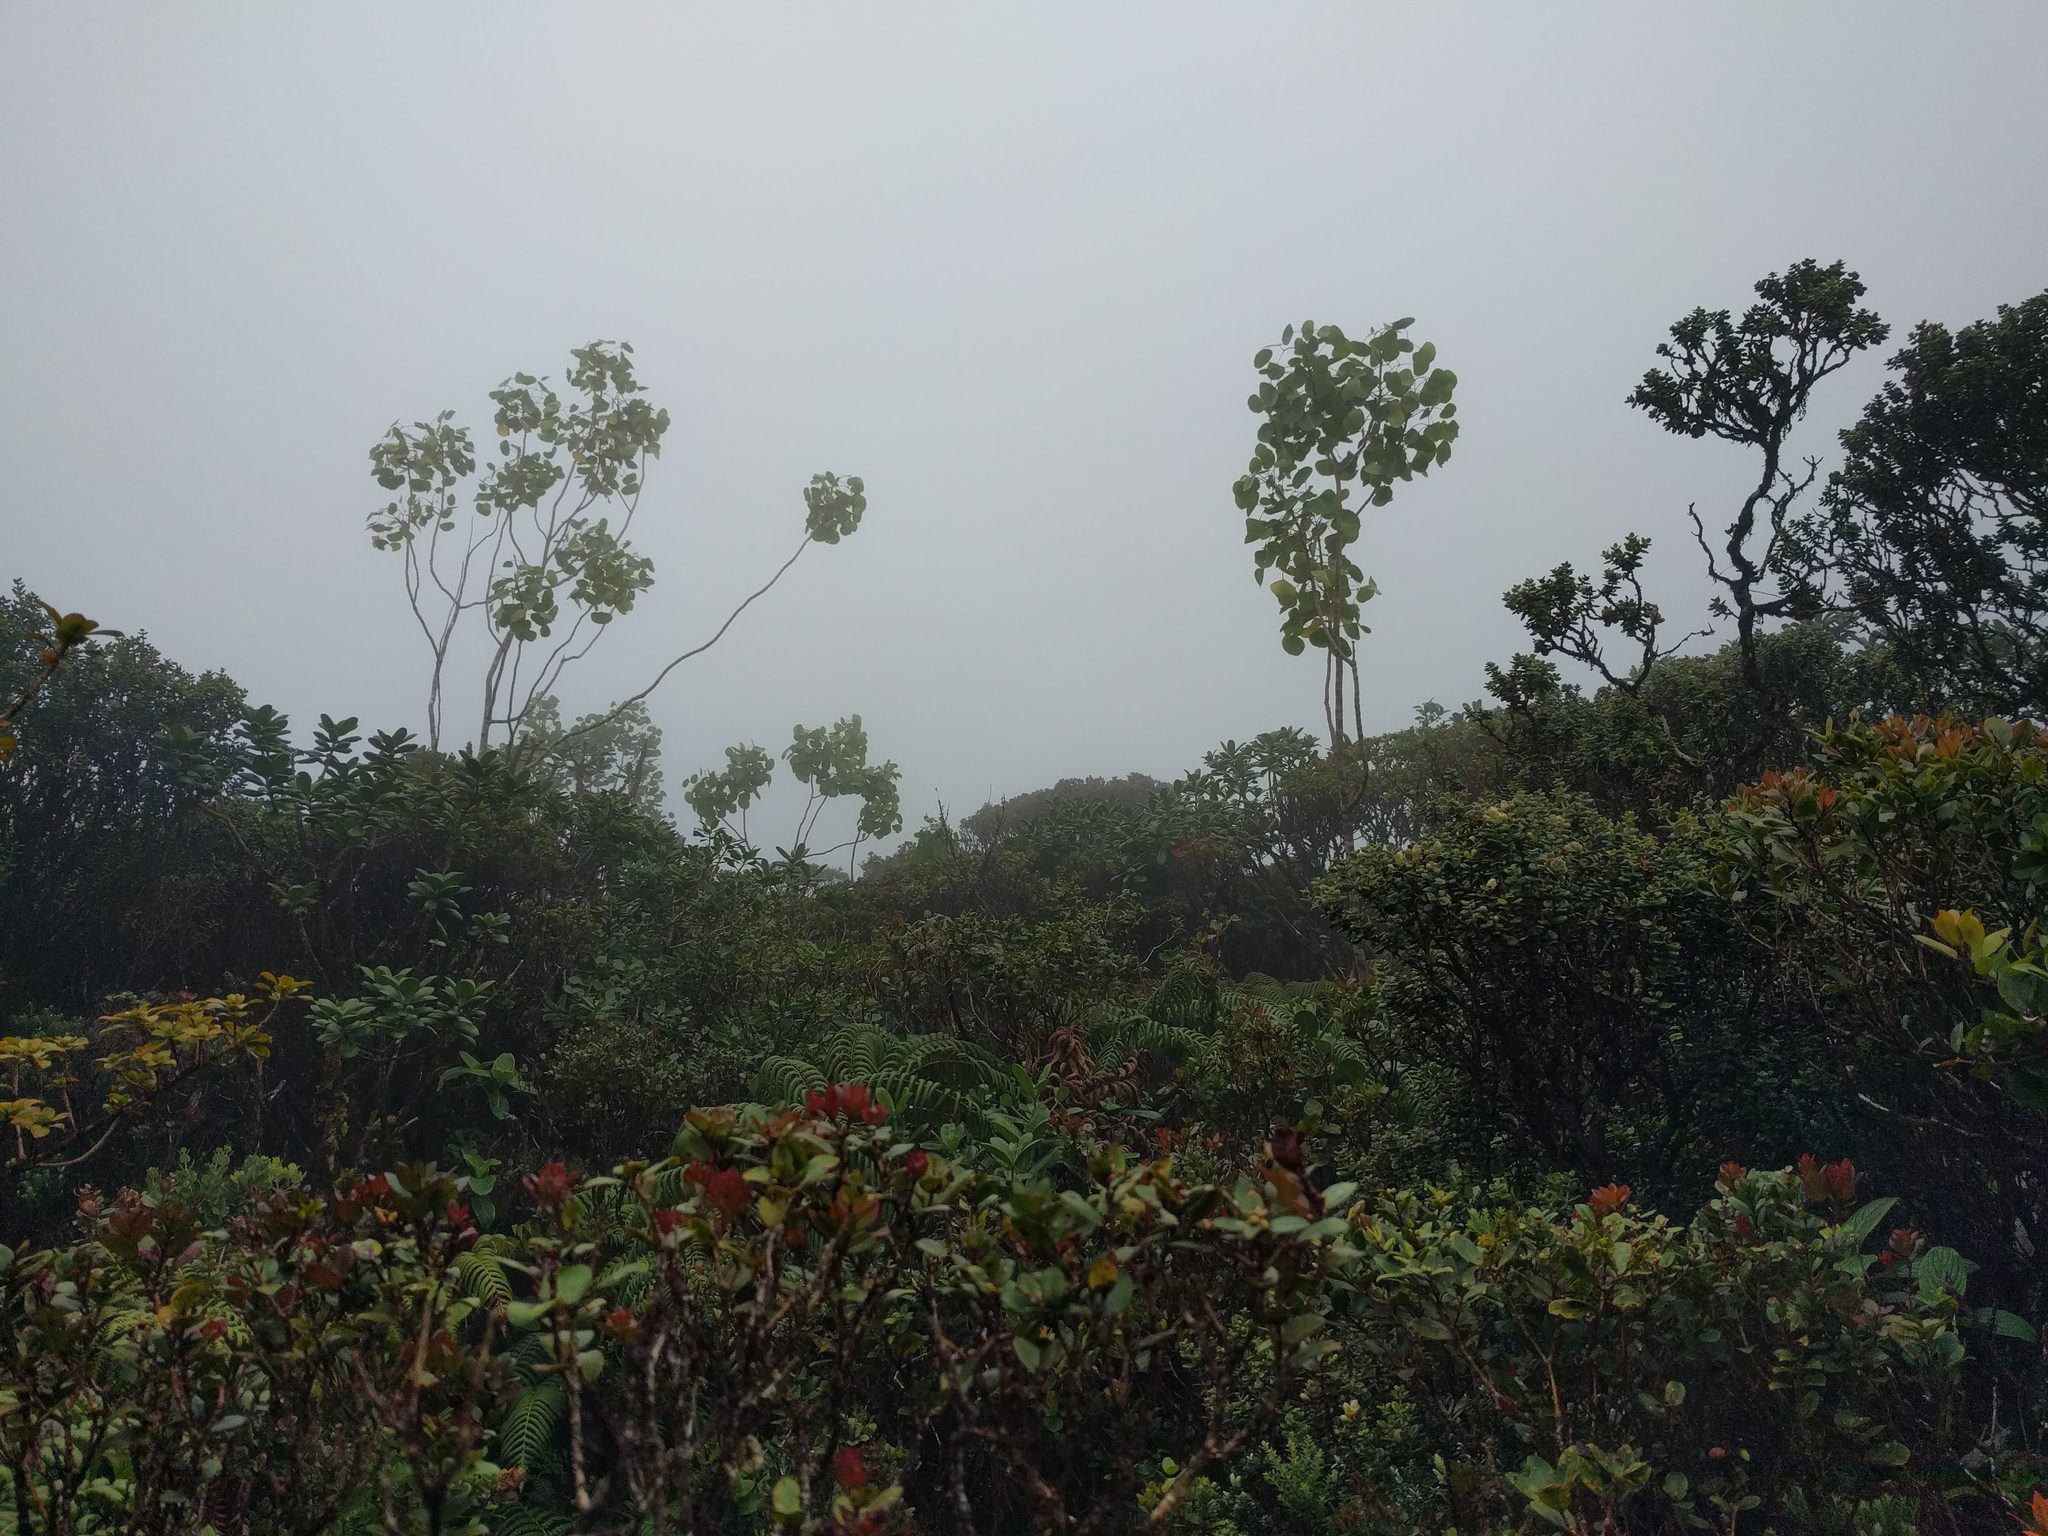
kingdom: Plantae
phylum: Tracheophyta
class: Magnoliopsida
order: Apiales
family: Araliaceae
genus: Cheirodendron
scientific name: Cheirodendron platyphyllum
